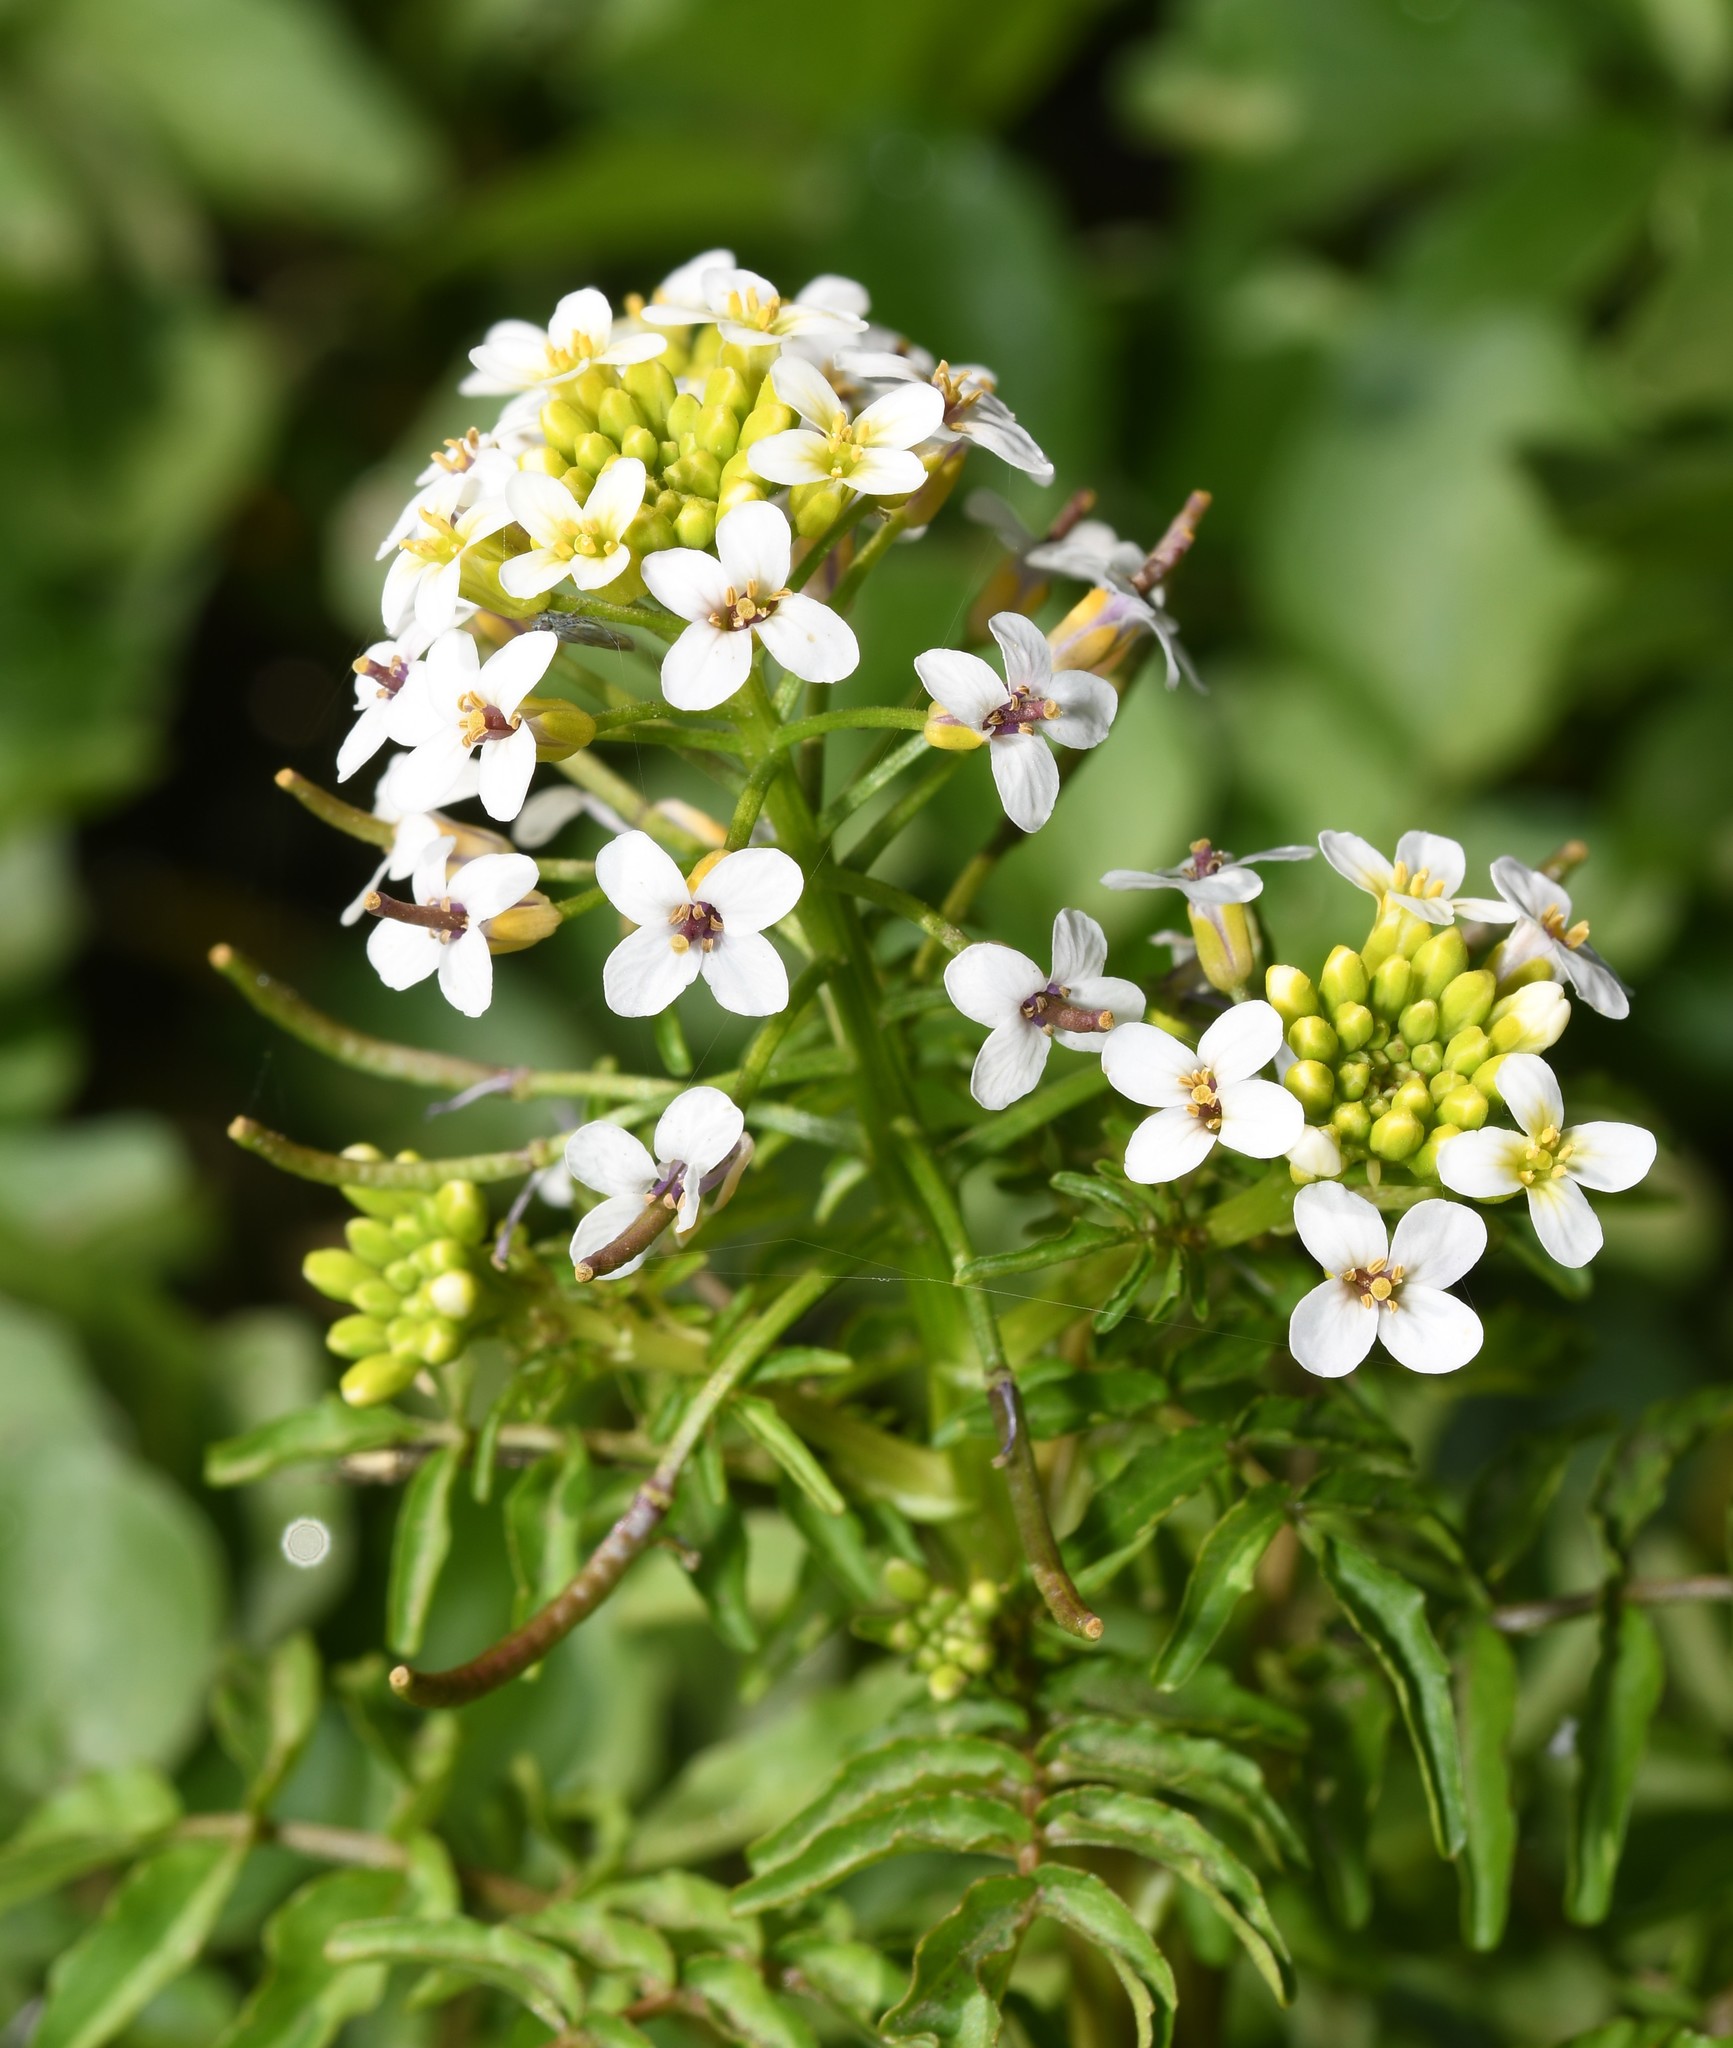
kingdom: Plantae
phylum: Tracheophyta
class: Magnoliopsida
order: Brassicales
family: Brassicaceae
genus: Nasturtium
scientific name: Nasturtium officinale
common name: Watercress
